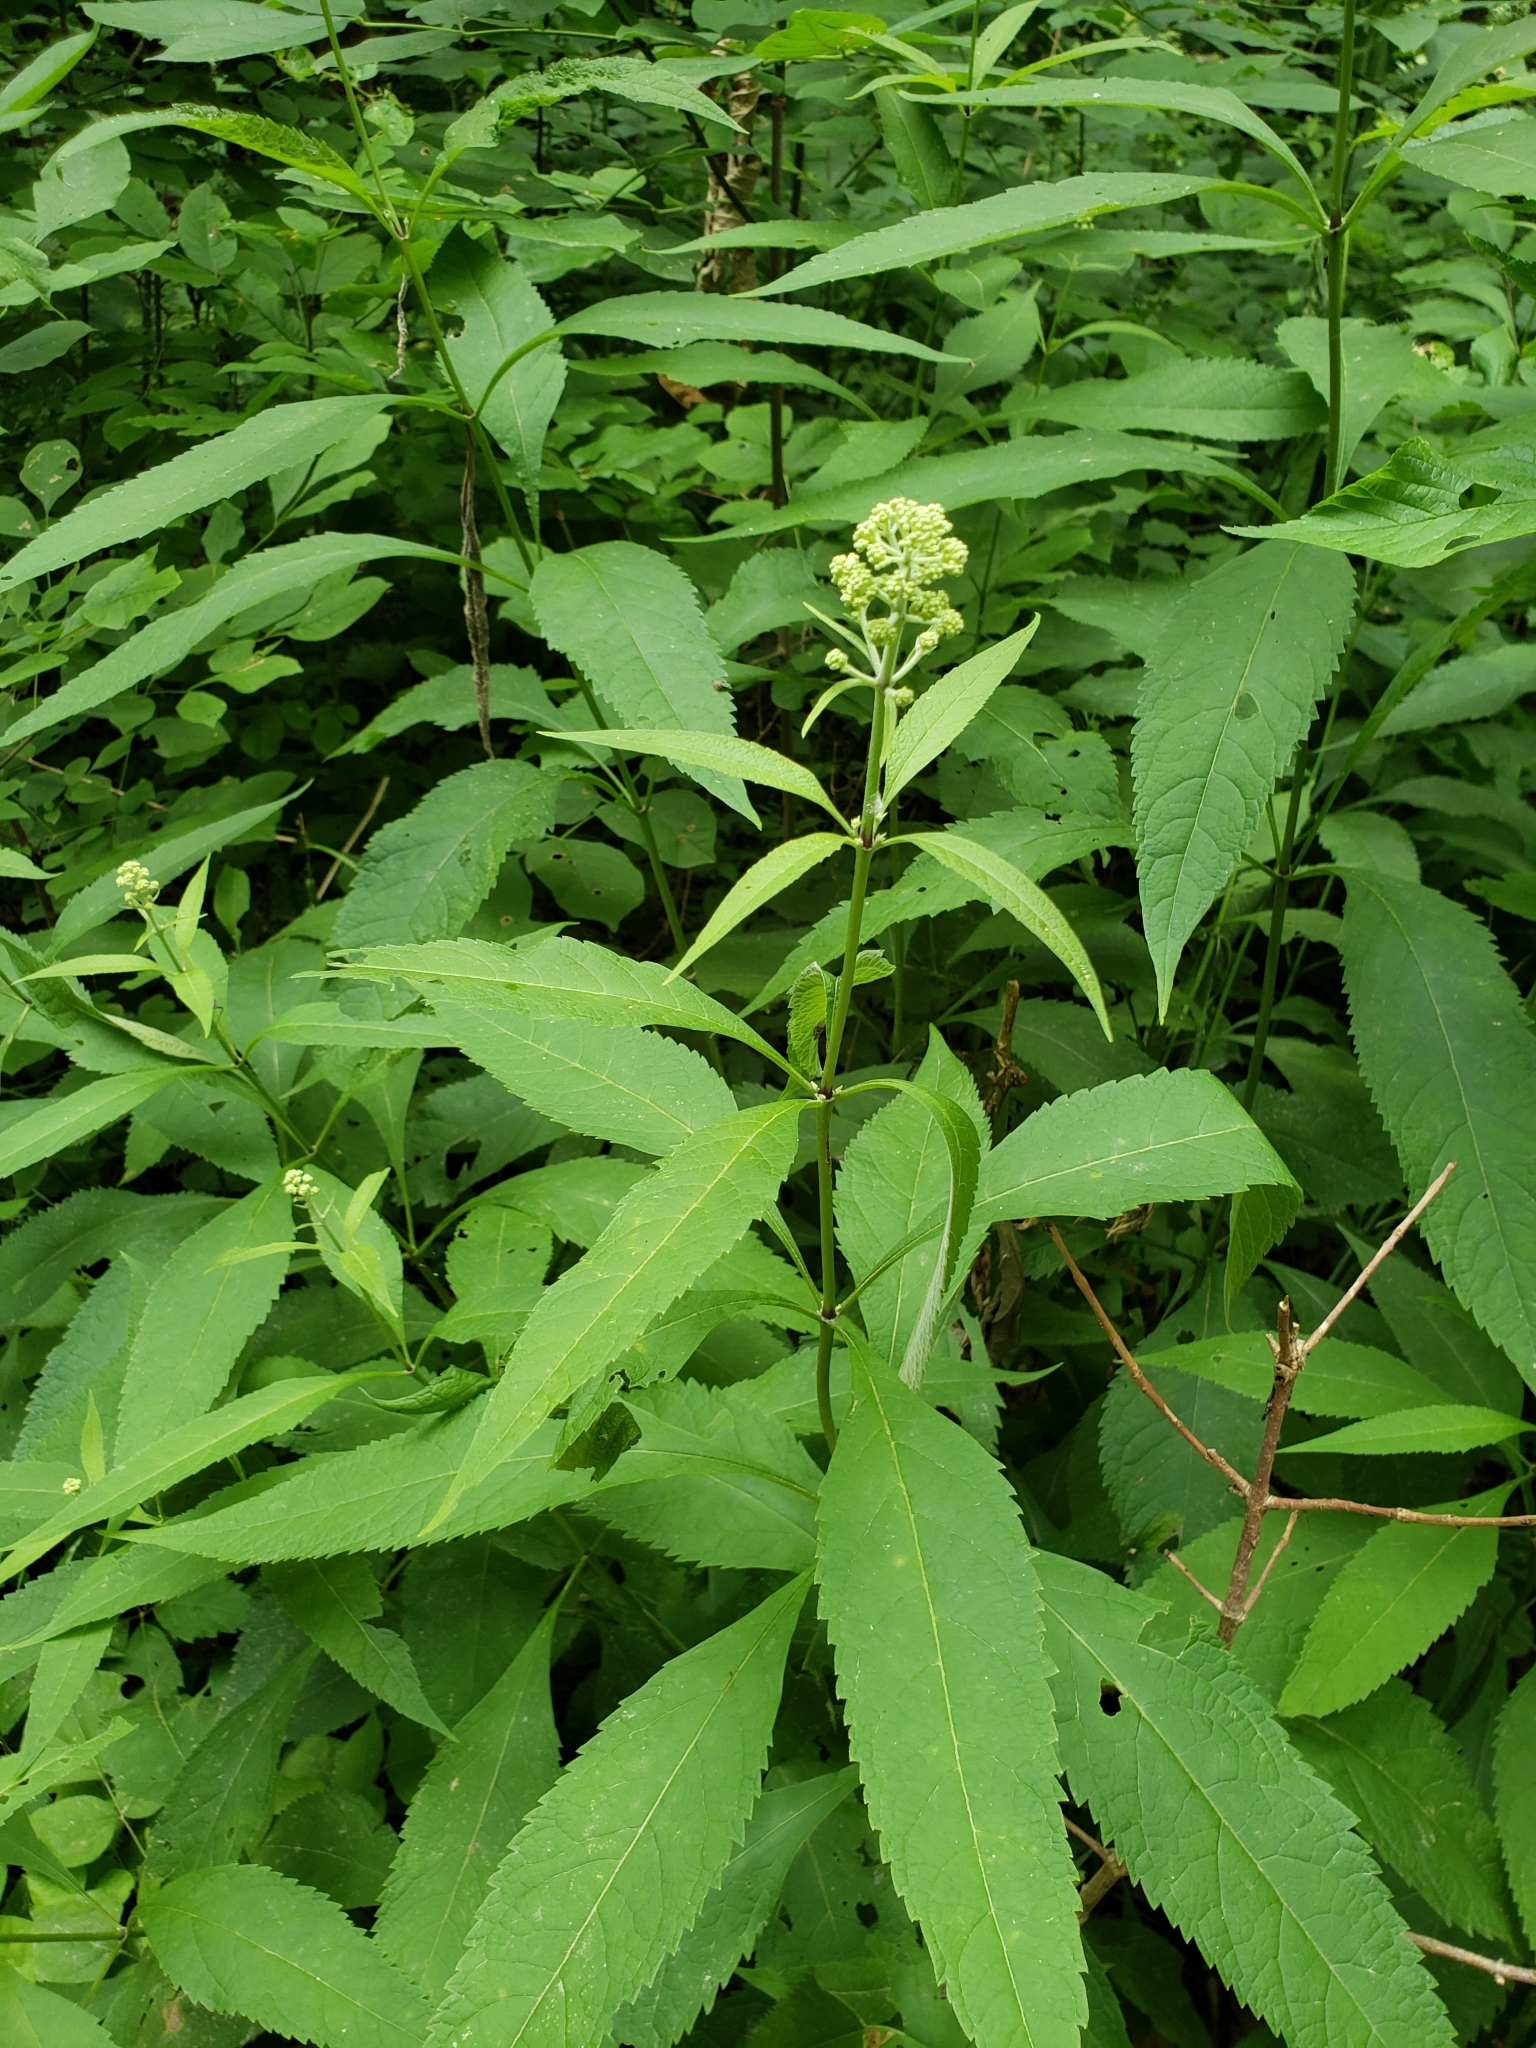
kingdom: Plantae
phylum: Tracheophyta
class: Magnoliopsida
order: Asterales
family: Asteraceae
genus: Eutrochium
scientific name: Eutrochium purpureum
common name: Gravelroot
